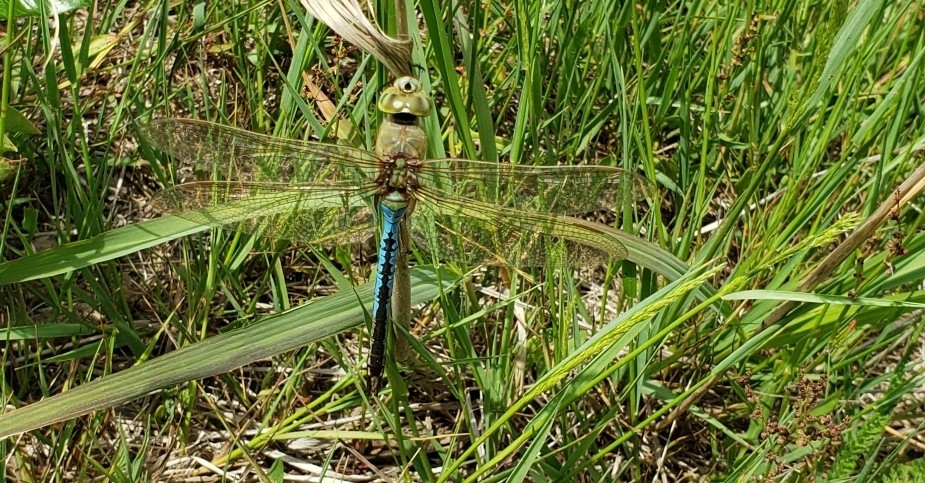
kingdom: Animalia
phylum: Arthropoda
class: Insecta
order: Odonata
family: Aeshnidae
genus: Anax
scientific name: Anax junius
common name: Common green darner
